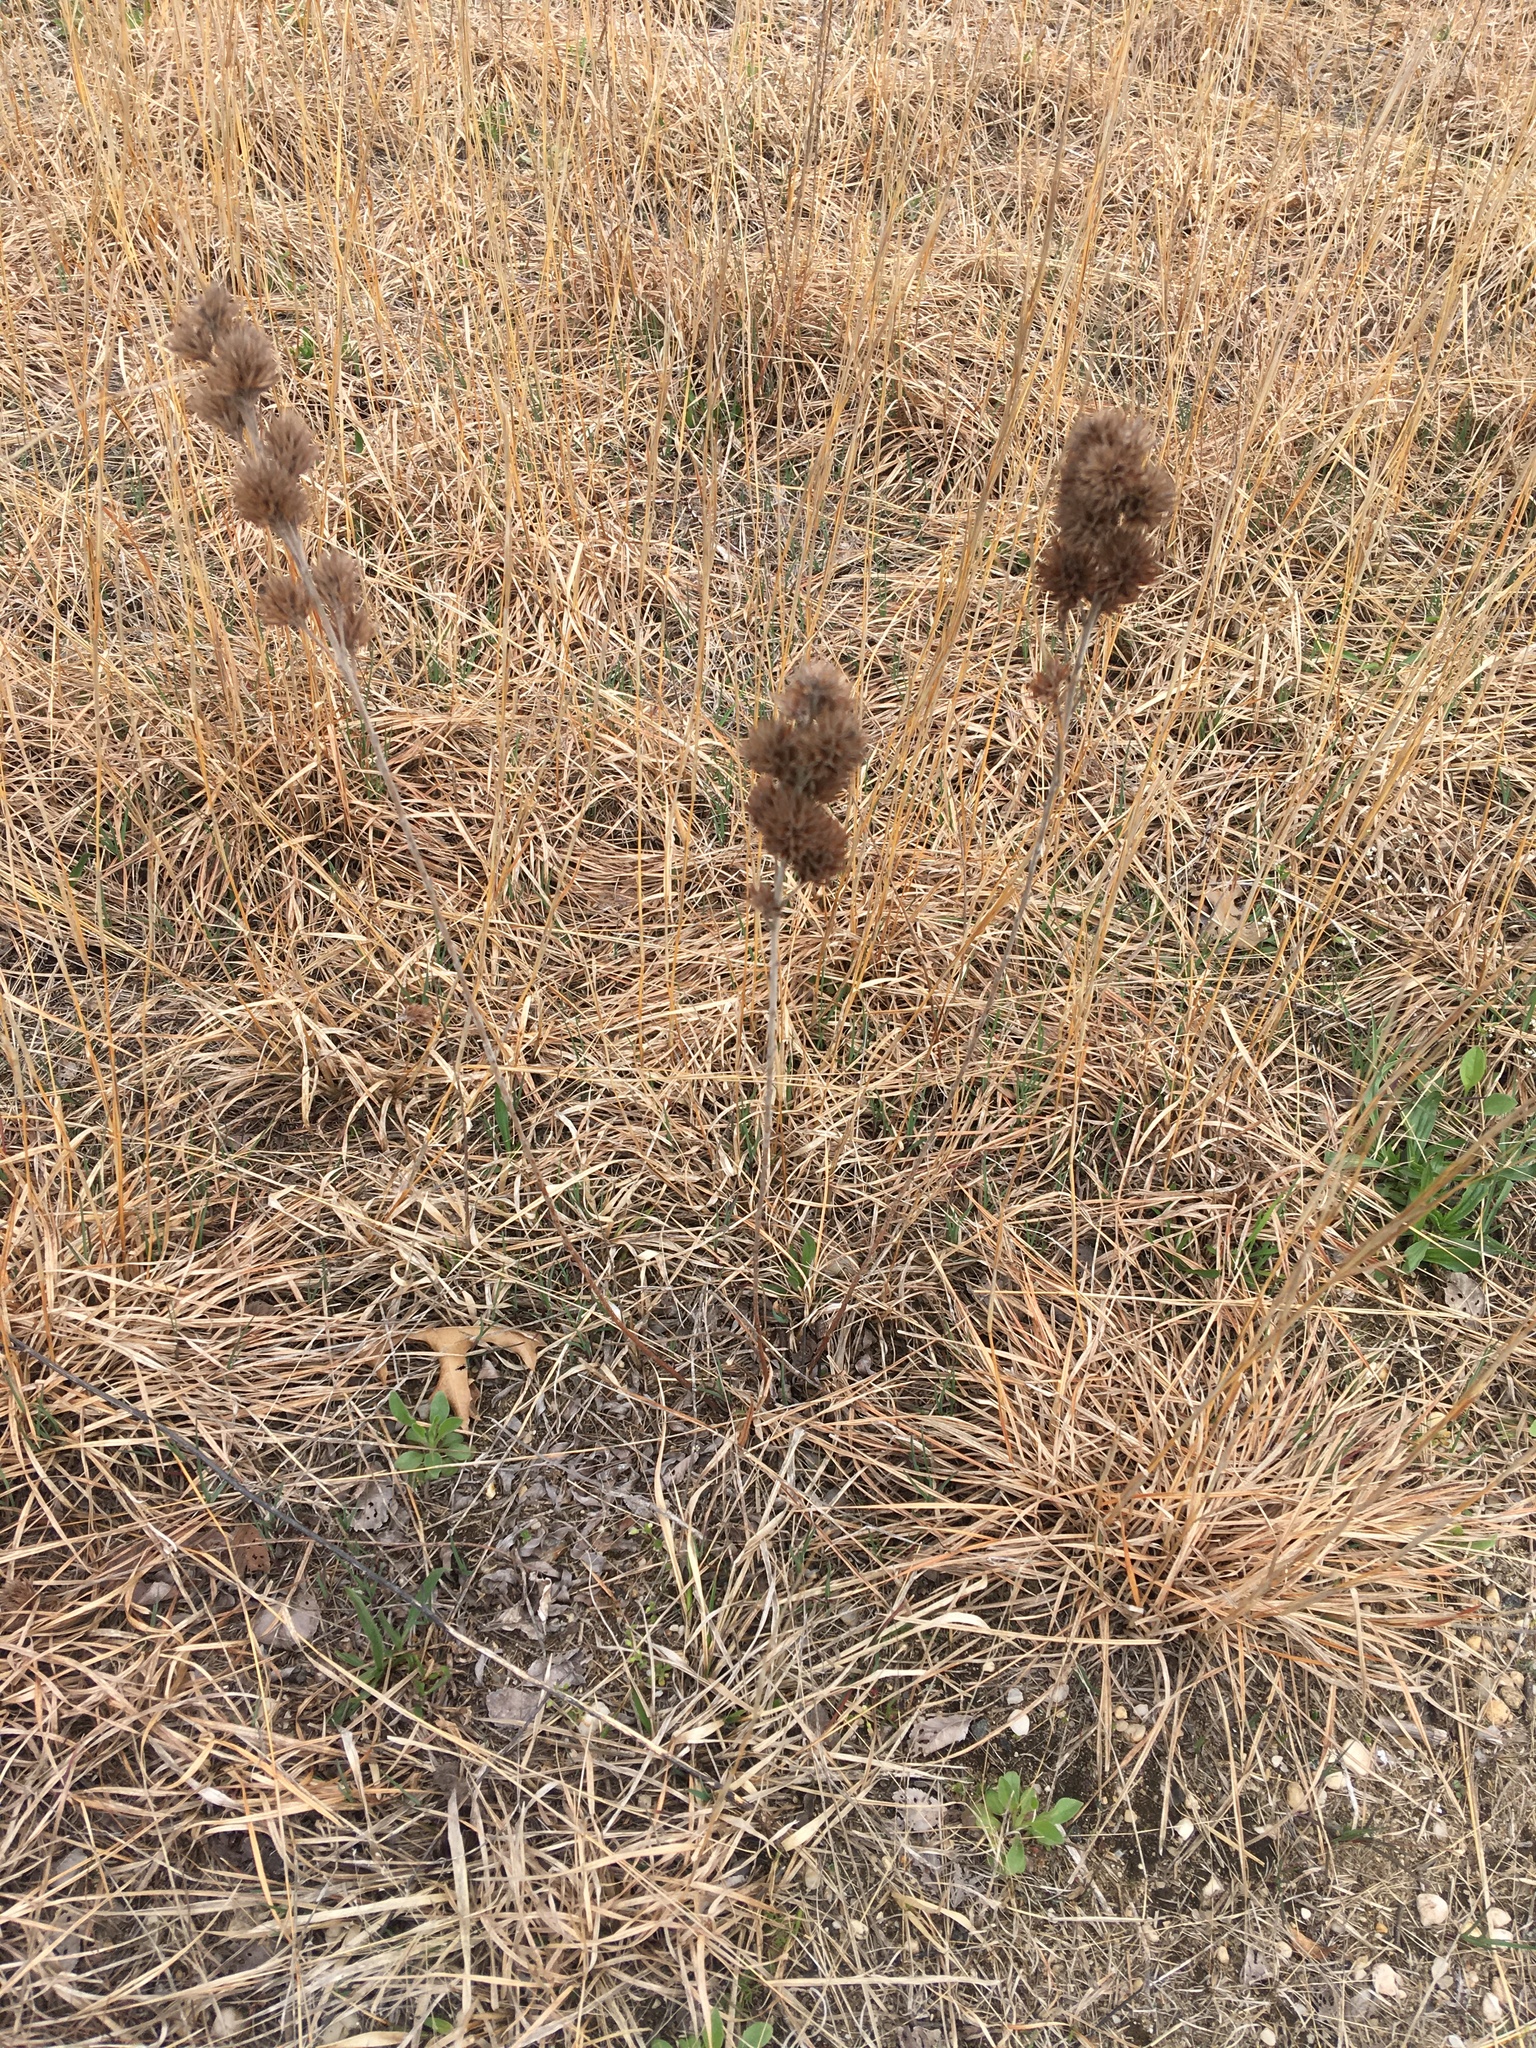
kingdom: Plantae
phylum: Tracheophyta
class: Magnoliopsida
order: Fabales
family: Fabaceae
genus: Lespedeza
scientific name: Lespedeza capitata
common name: Dusty clover
